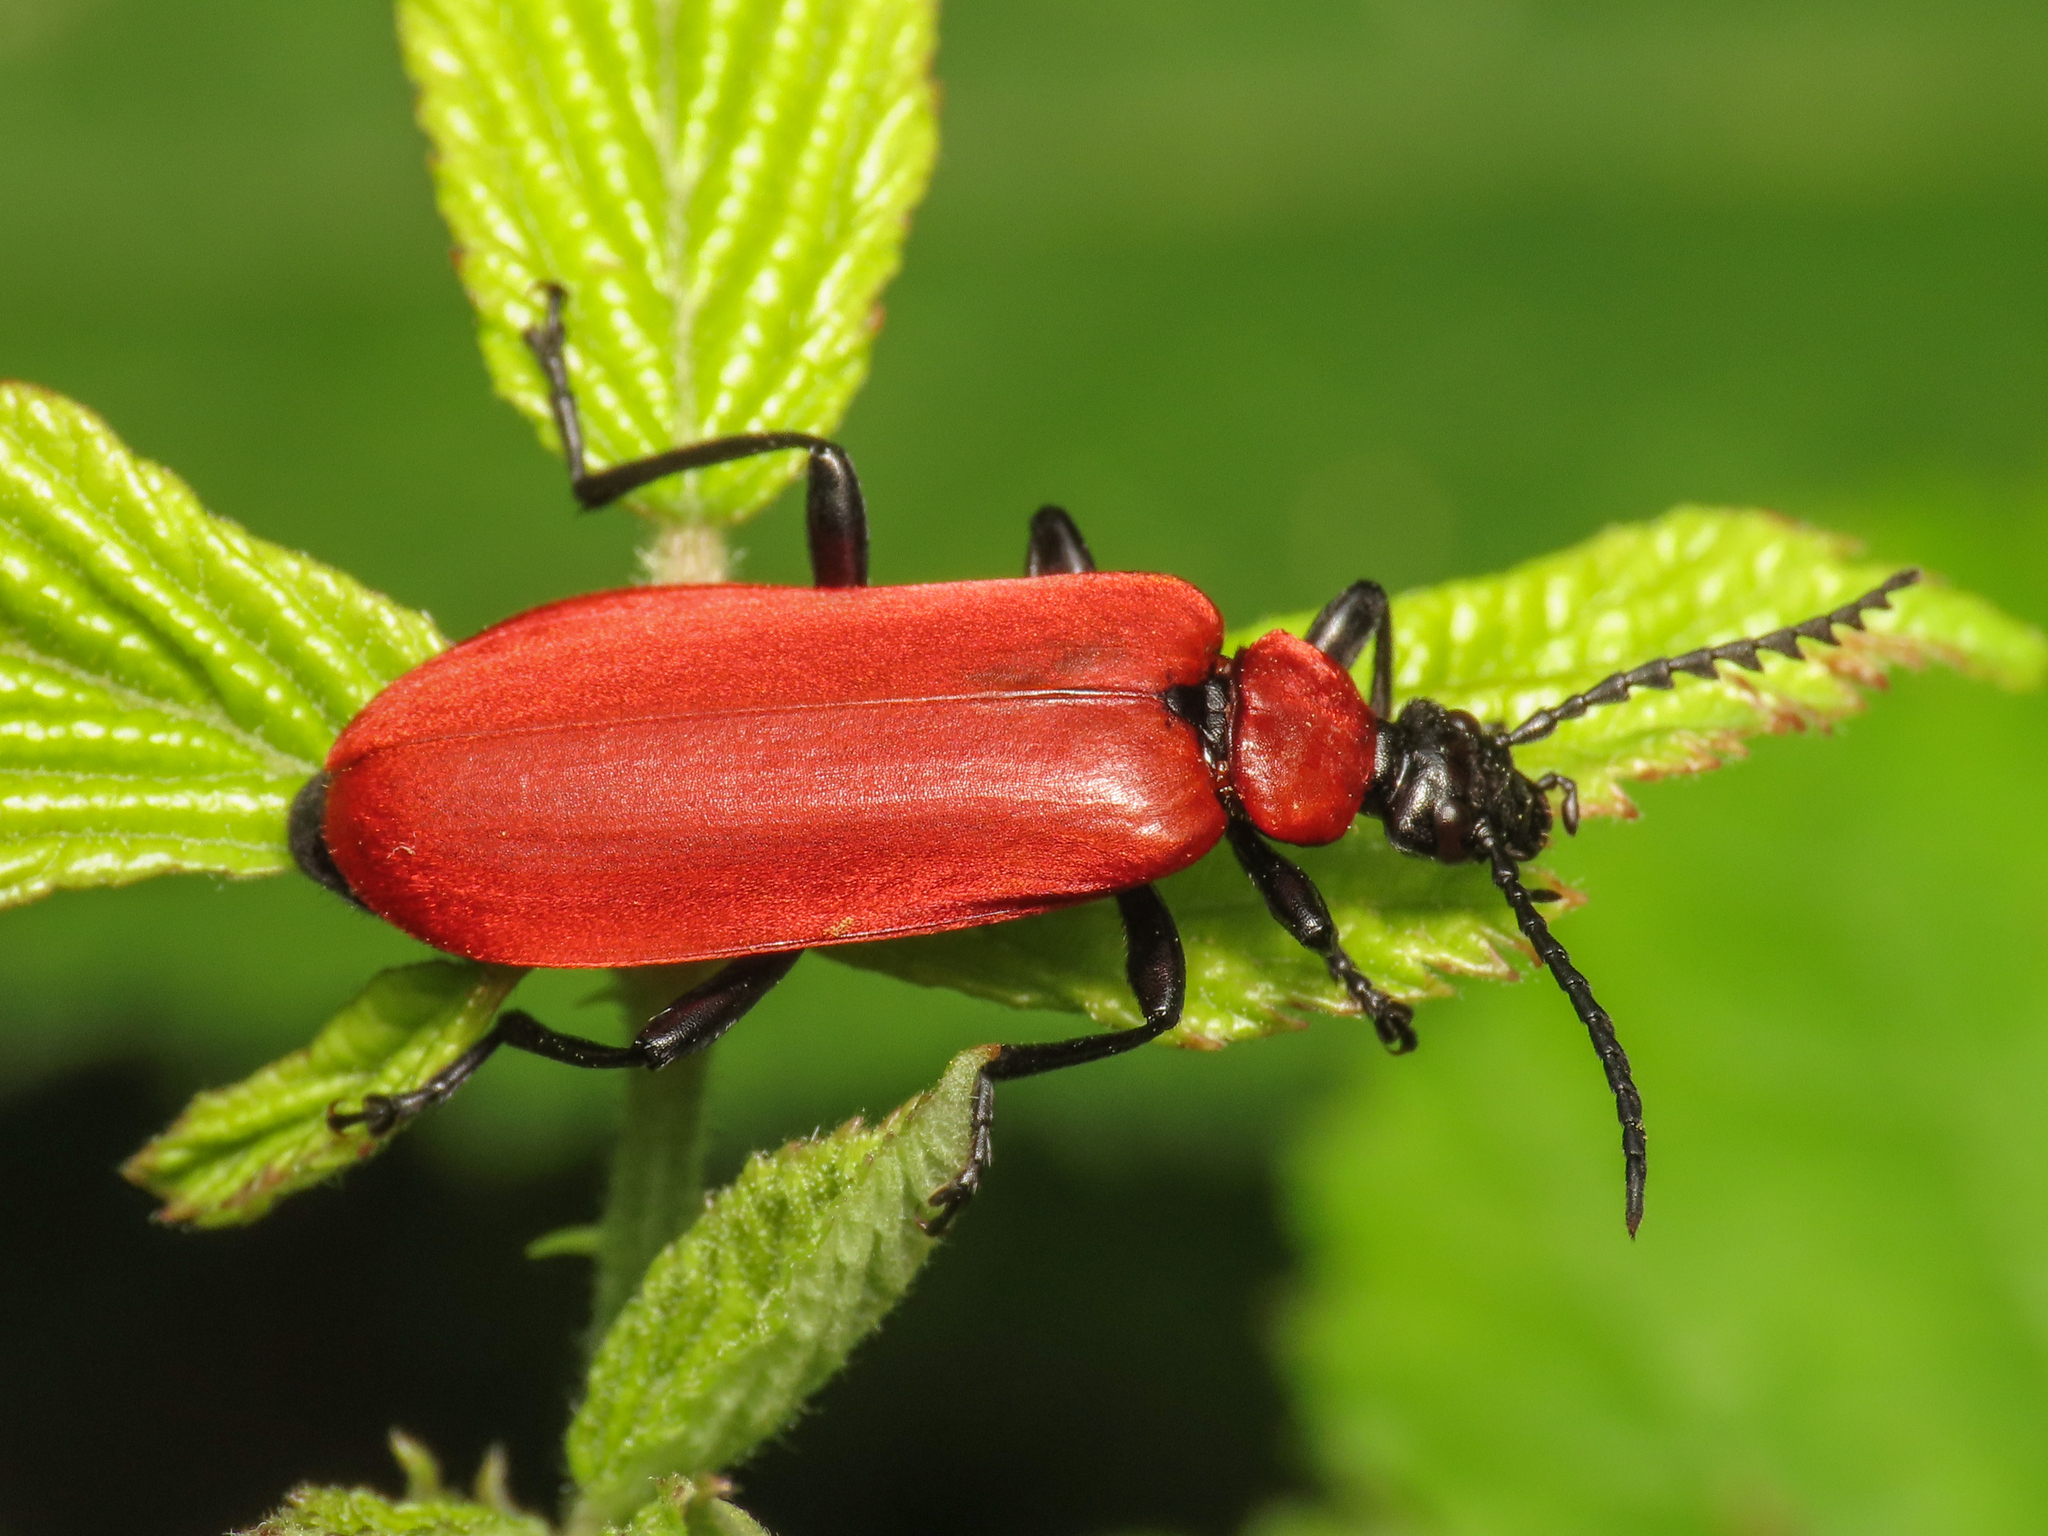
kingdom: Animalia
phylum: Arthropoda
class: Insecta
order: Coleoptera
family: Pyrochroidae
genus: Pyrochroa
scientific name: Pyrochroa coccinea
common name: Black-headed cardinal beetle
